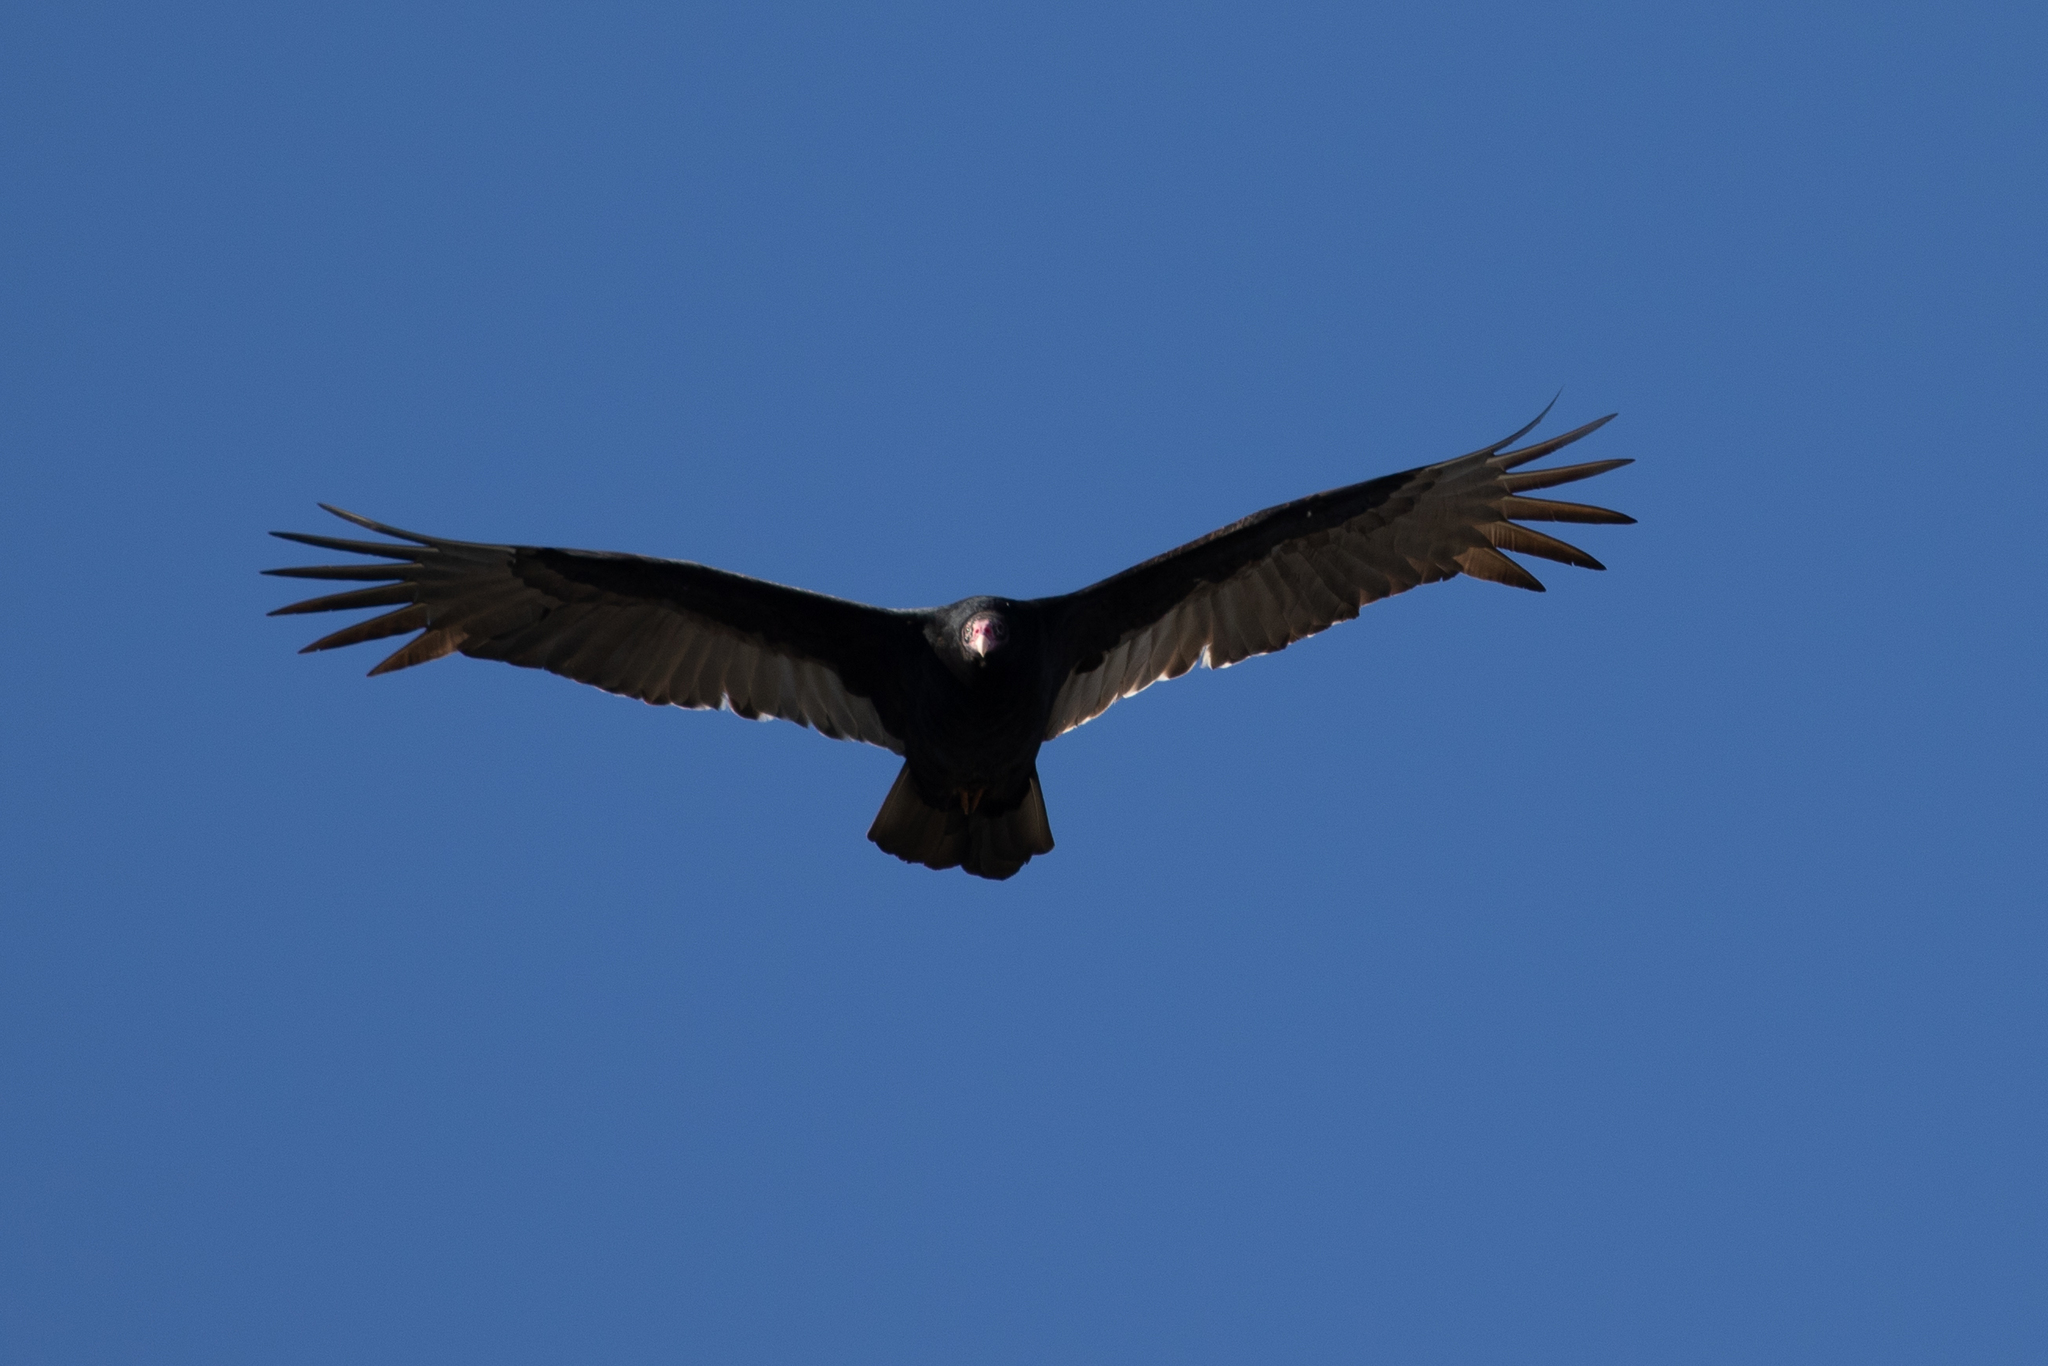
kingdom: Animalia
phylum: Chordata
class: Aves
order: Accipitriformes
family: Cathartidae
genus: Cathartes
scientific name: Cathartes aura
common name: Turkey vulture
